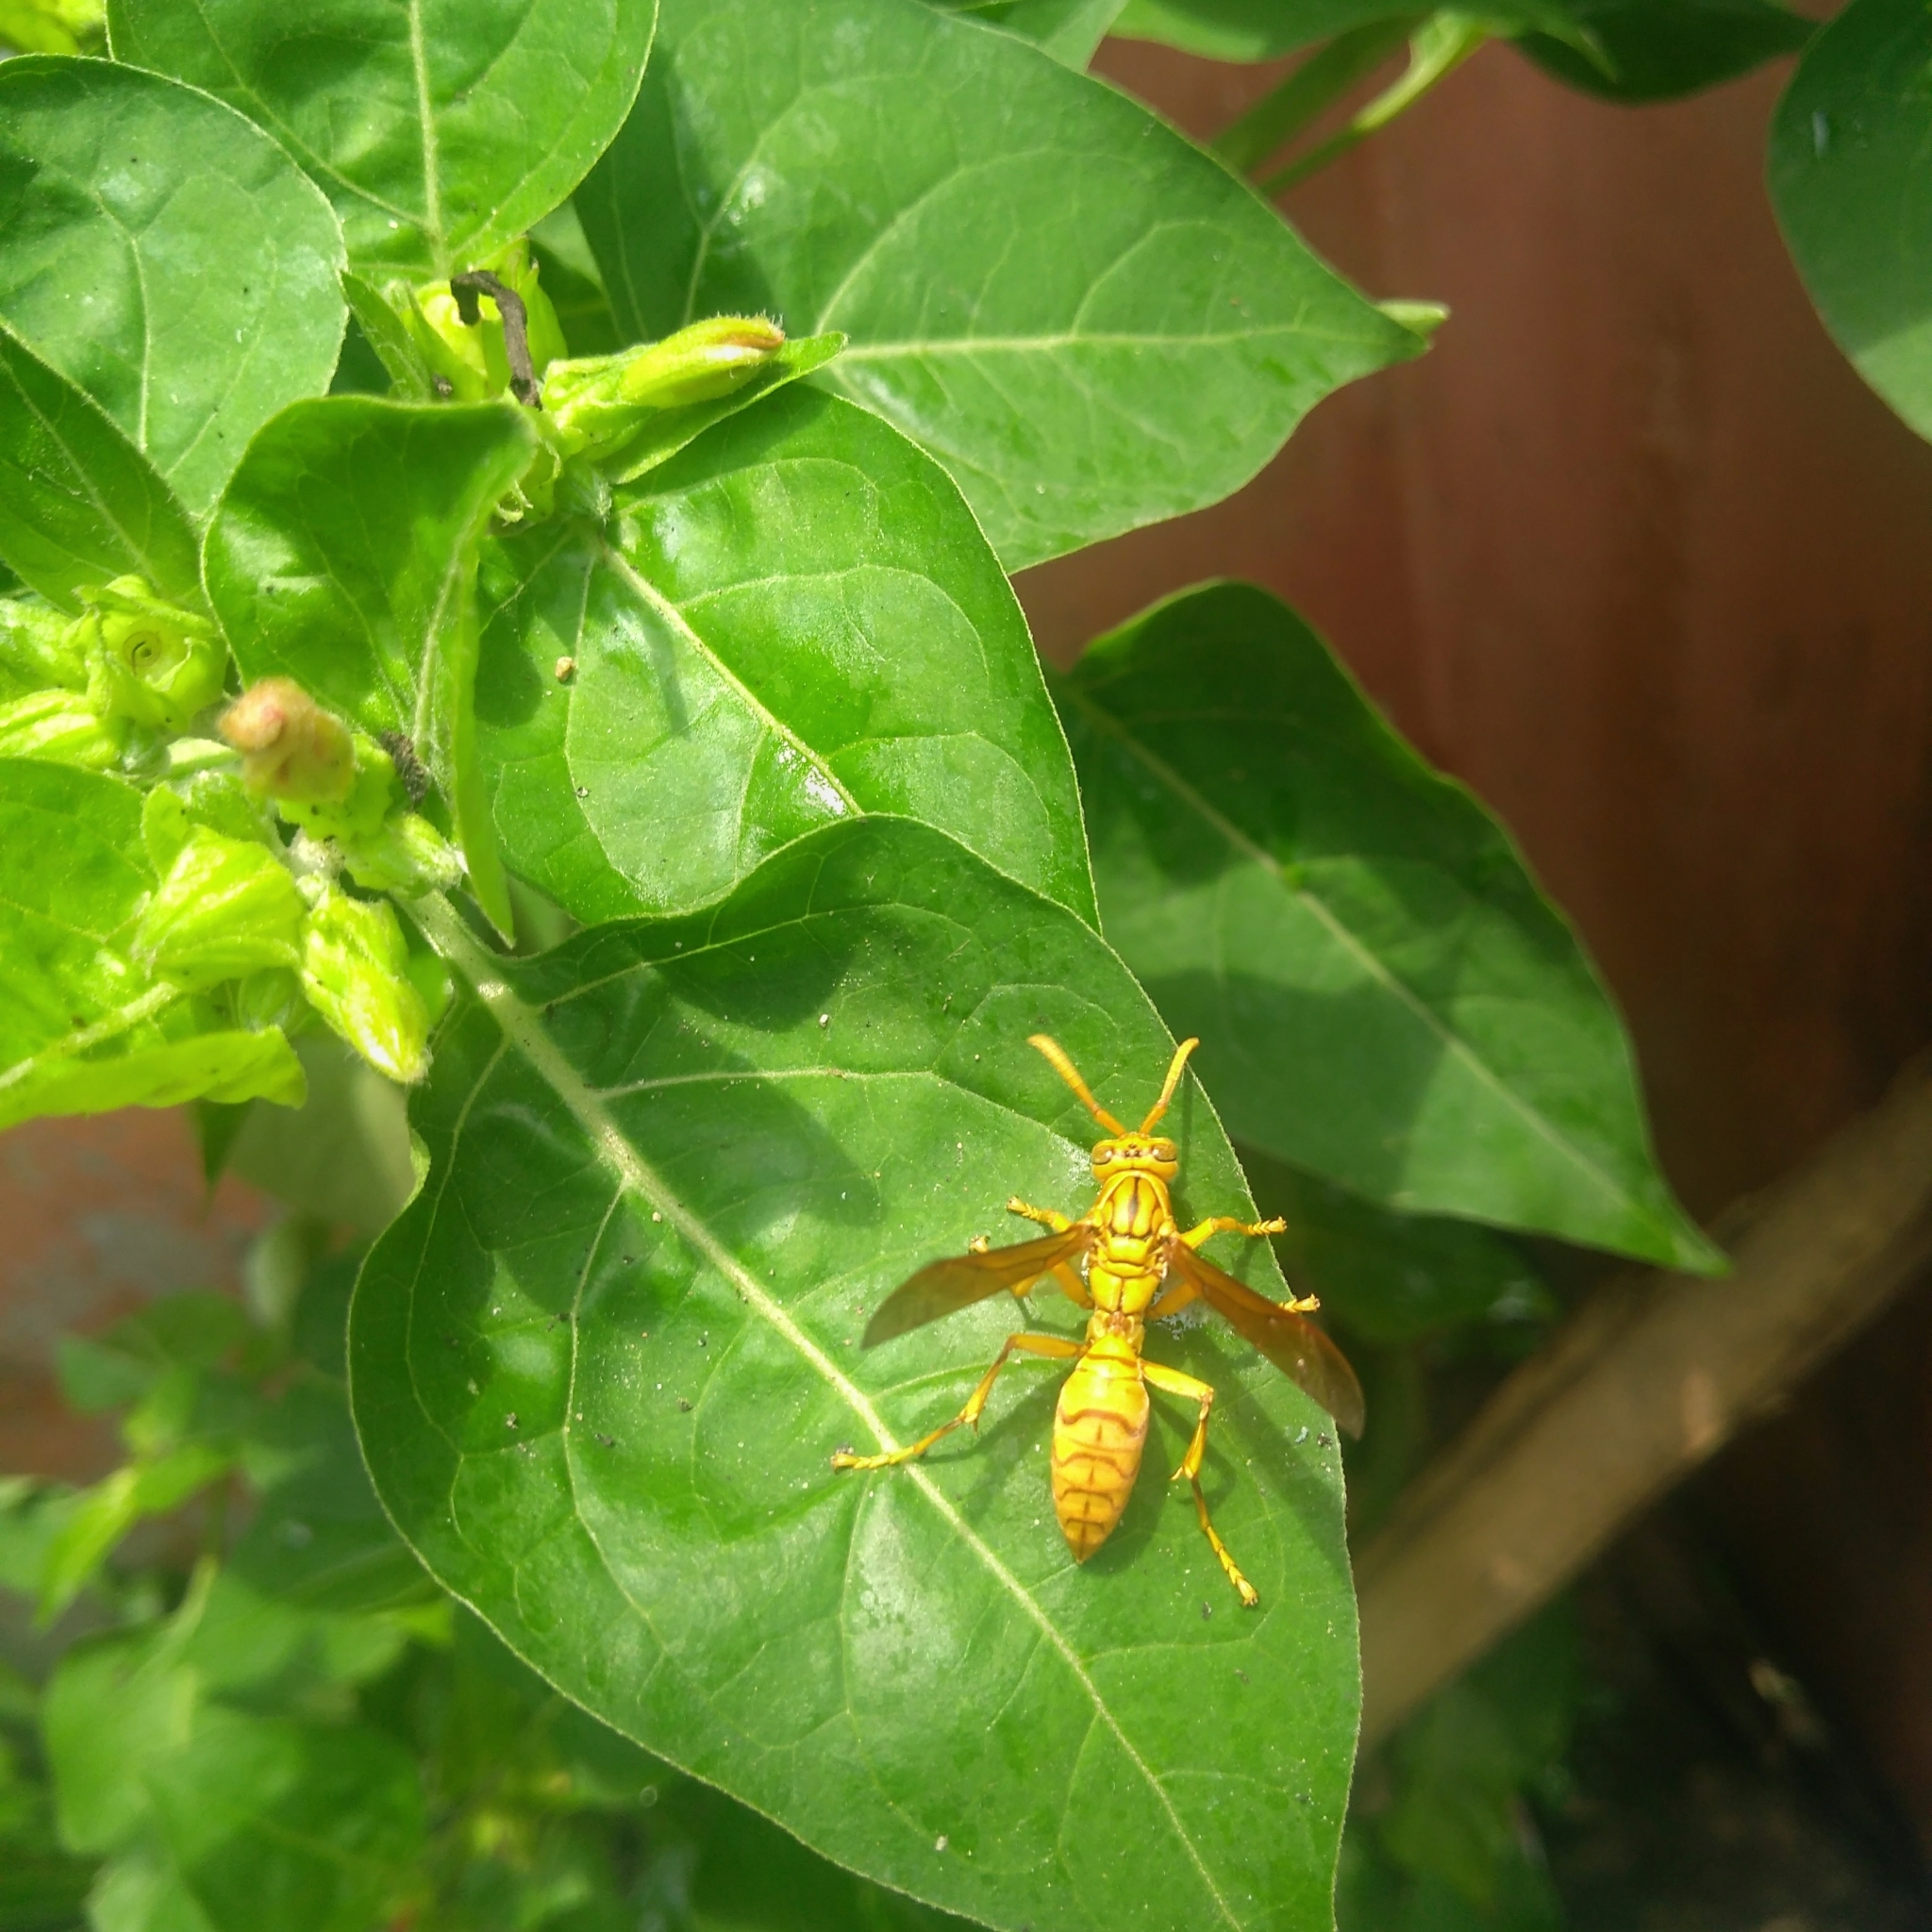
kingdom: Animalia
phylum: Arthropoda
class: Insecta
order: Hymenoptera
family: Eumenidae
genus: Polistes
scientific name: Polistes olivaceus
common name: Paper wasp
